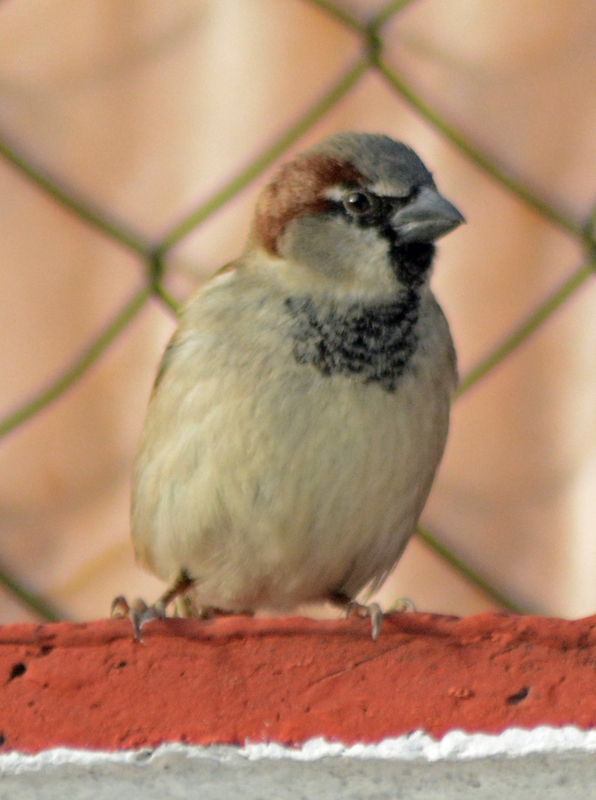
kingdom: Animalia
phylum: Chordata
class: Aves
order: Passeriformes
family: Passeridae
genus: Passer
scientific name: Passer domesticus
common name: House sparrow
